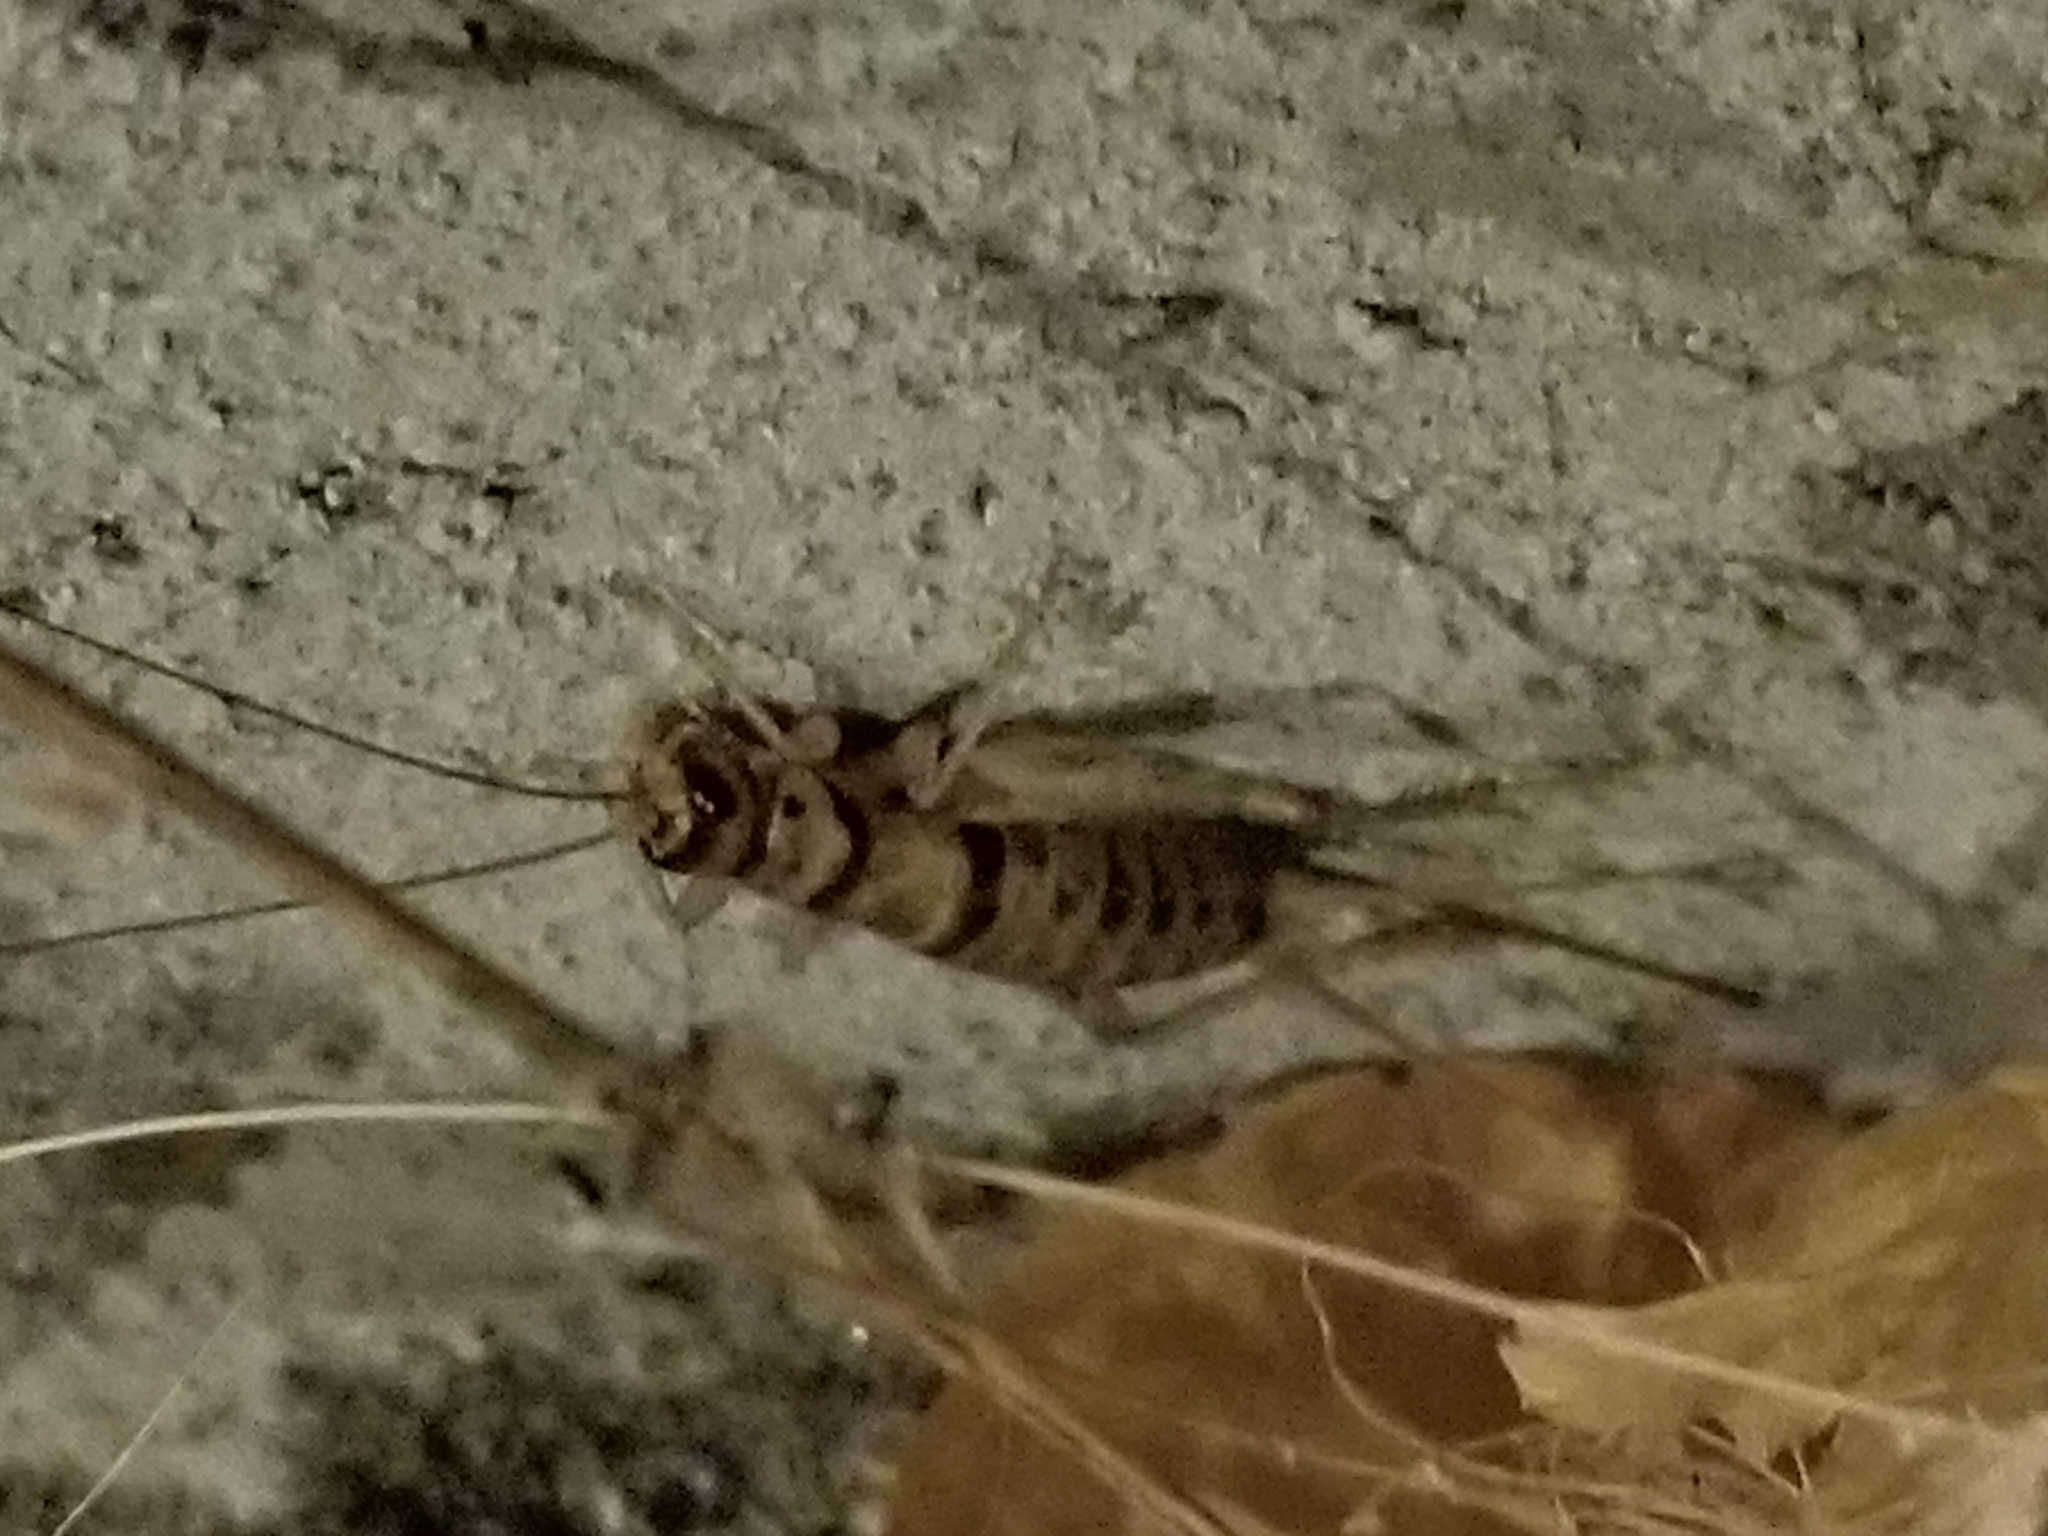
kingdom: Animalia
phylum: Arthropoda
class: Insecta
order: Orthoptera
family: Gryllidae
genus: Gryllodes
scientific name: Gryllodes sigillatus
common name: Tropical house cricket
